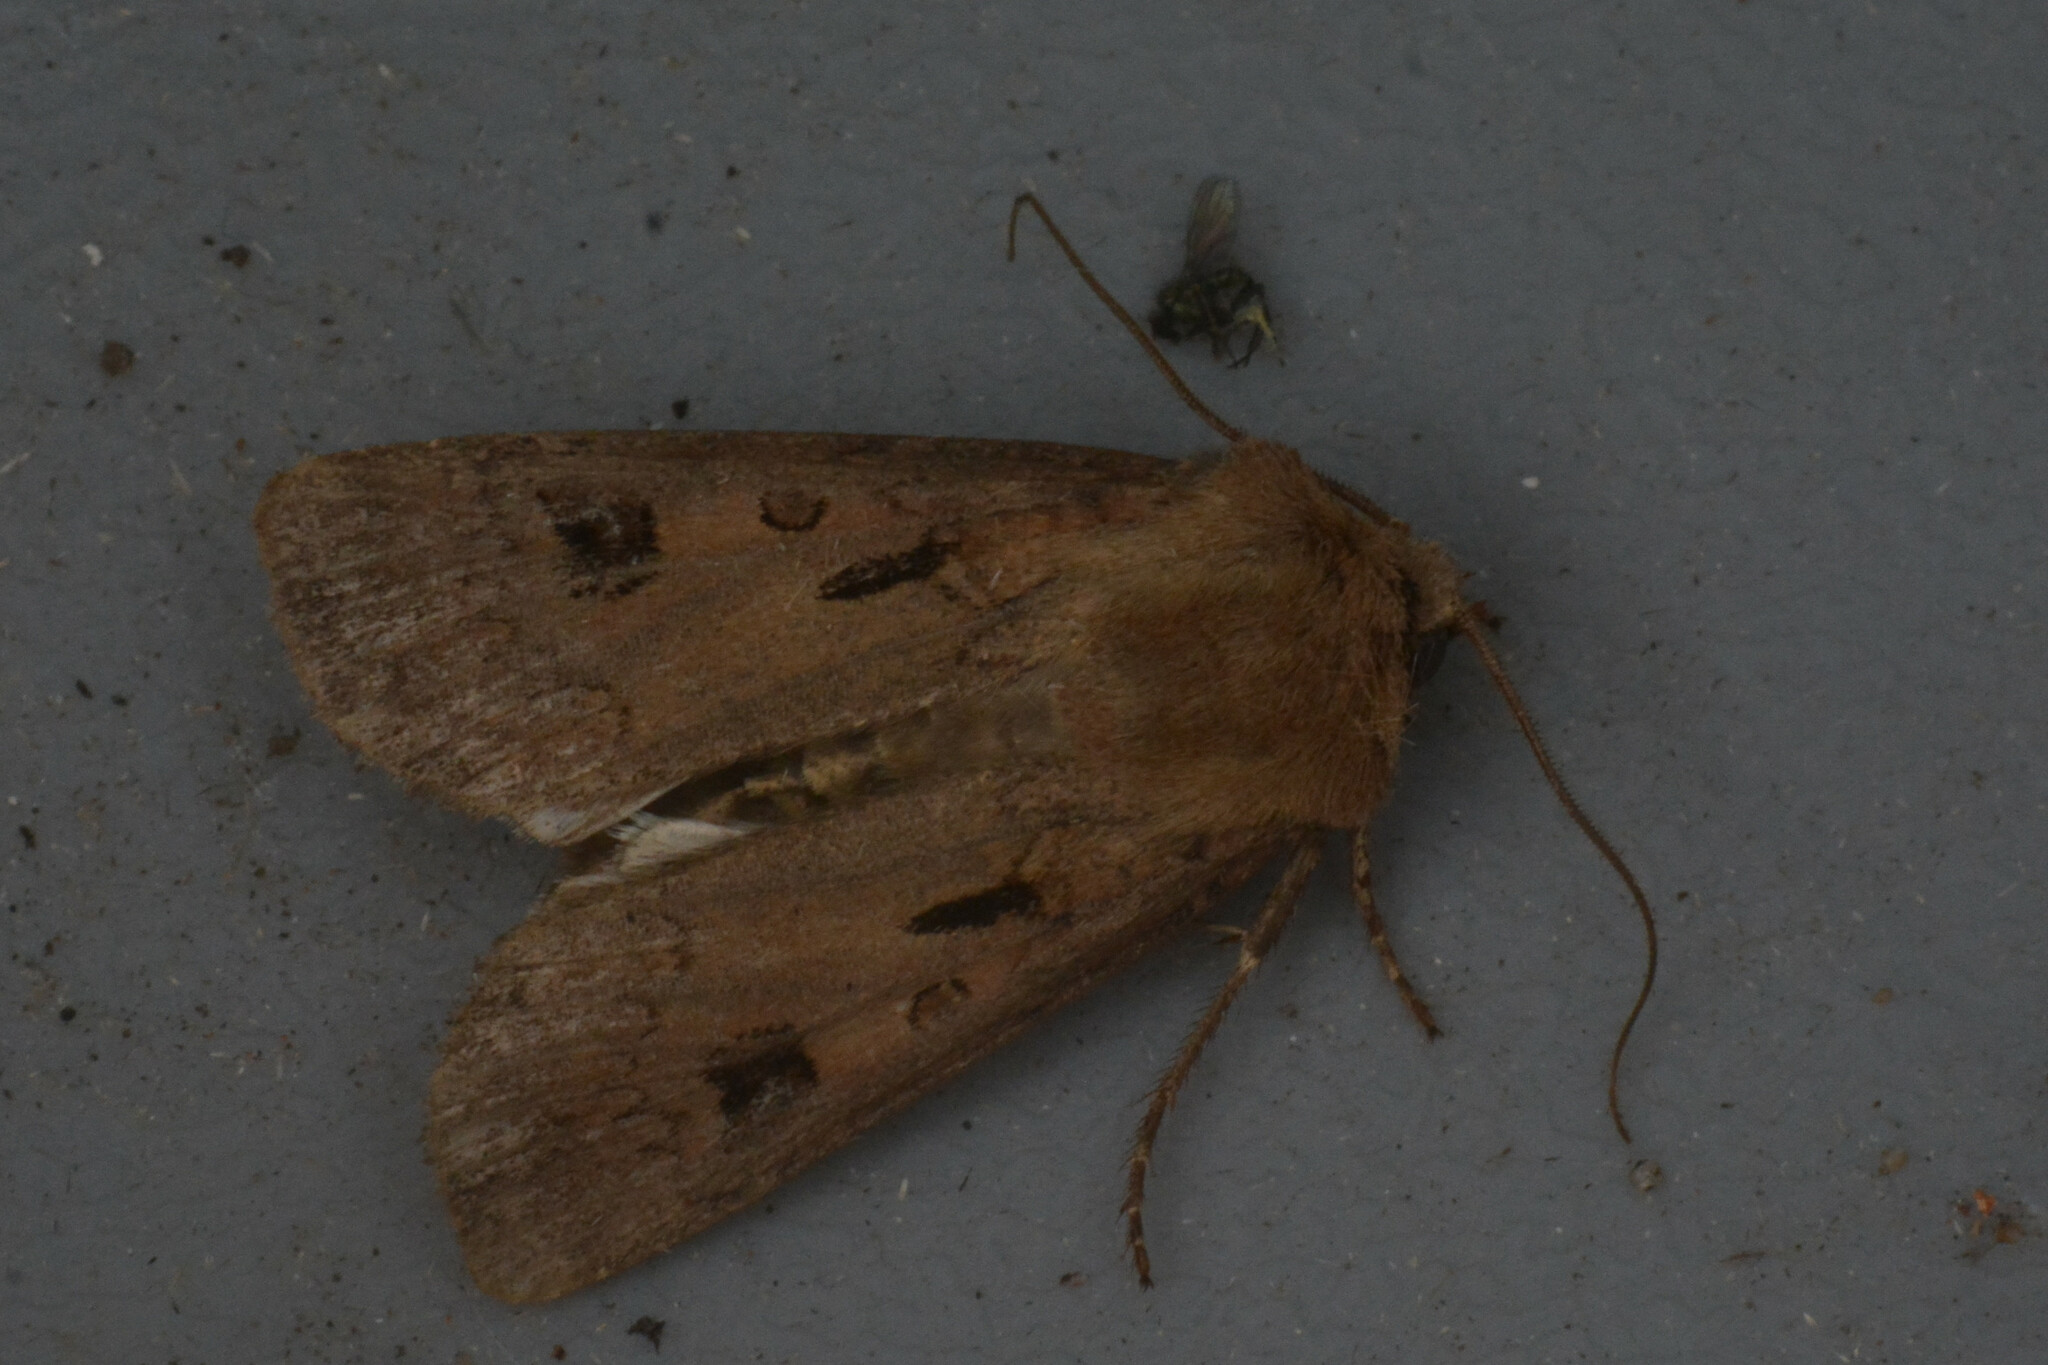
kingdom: Animalia
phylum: Arthropoda
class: Insecta
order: Lepidoptera
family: Noctuidae
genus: Agrotis
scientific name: Agrotis exclamationis
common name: Heart and dart
